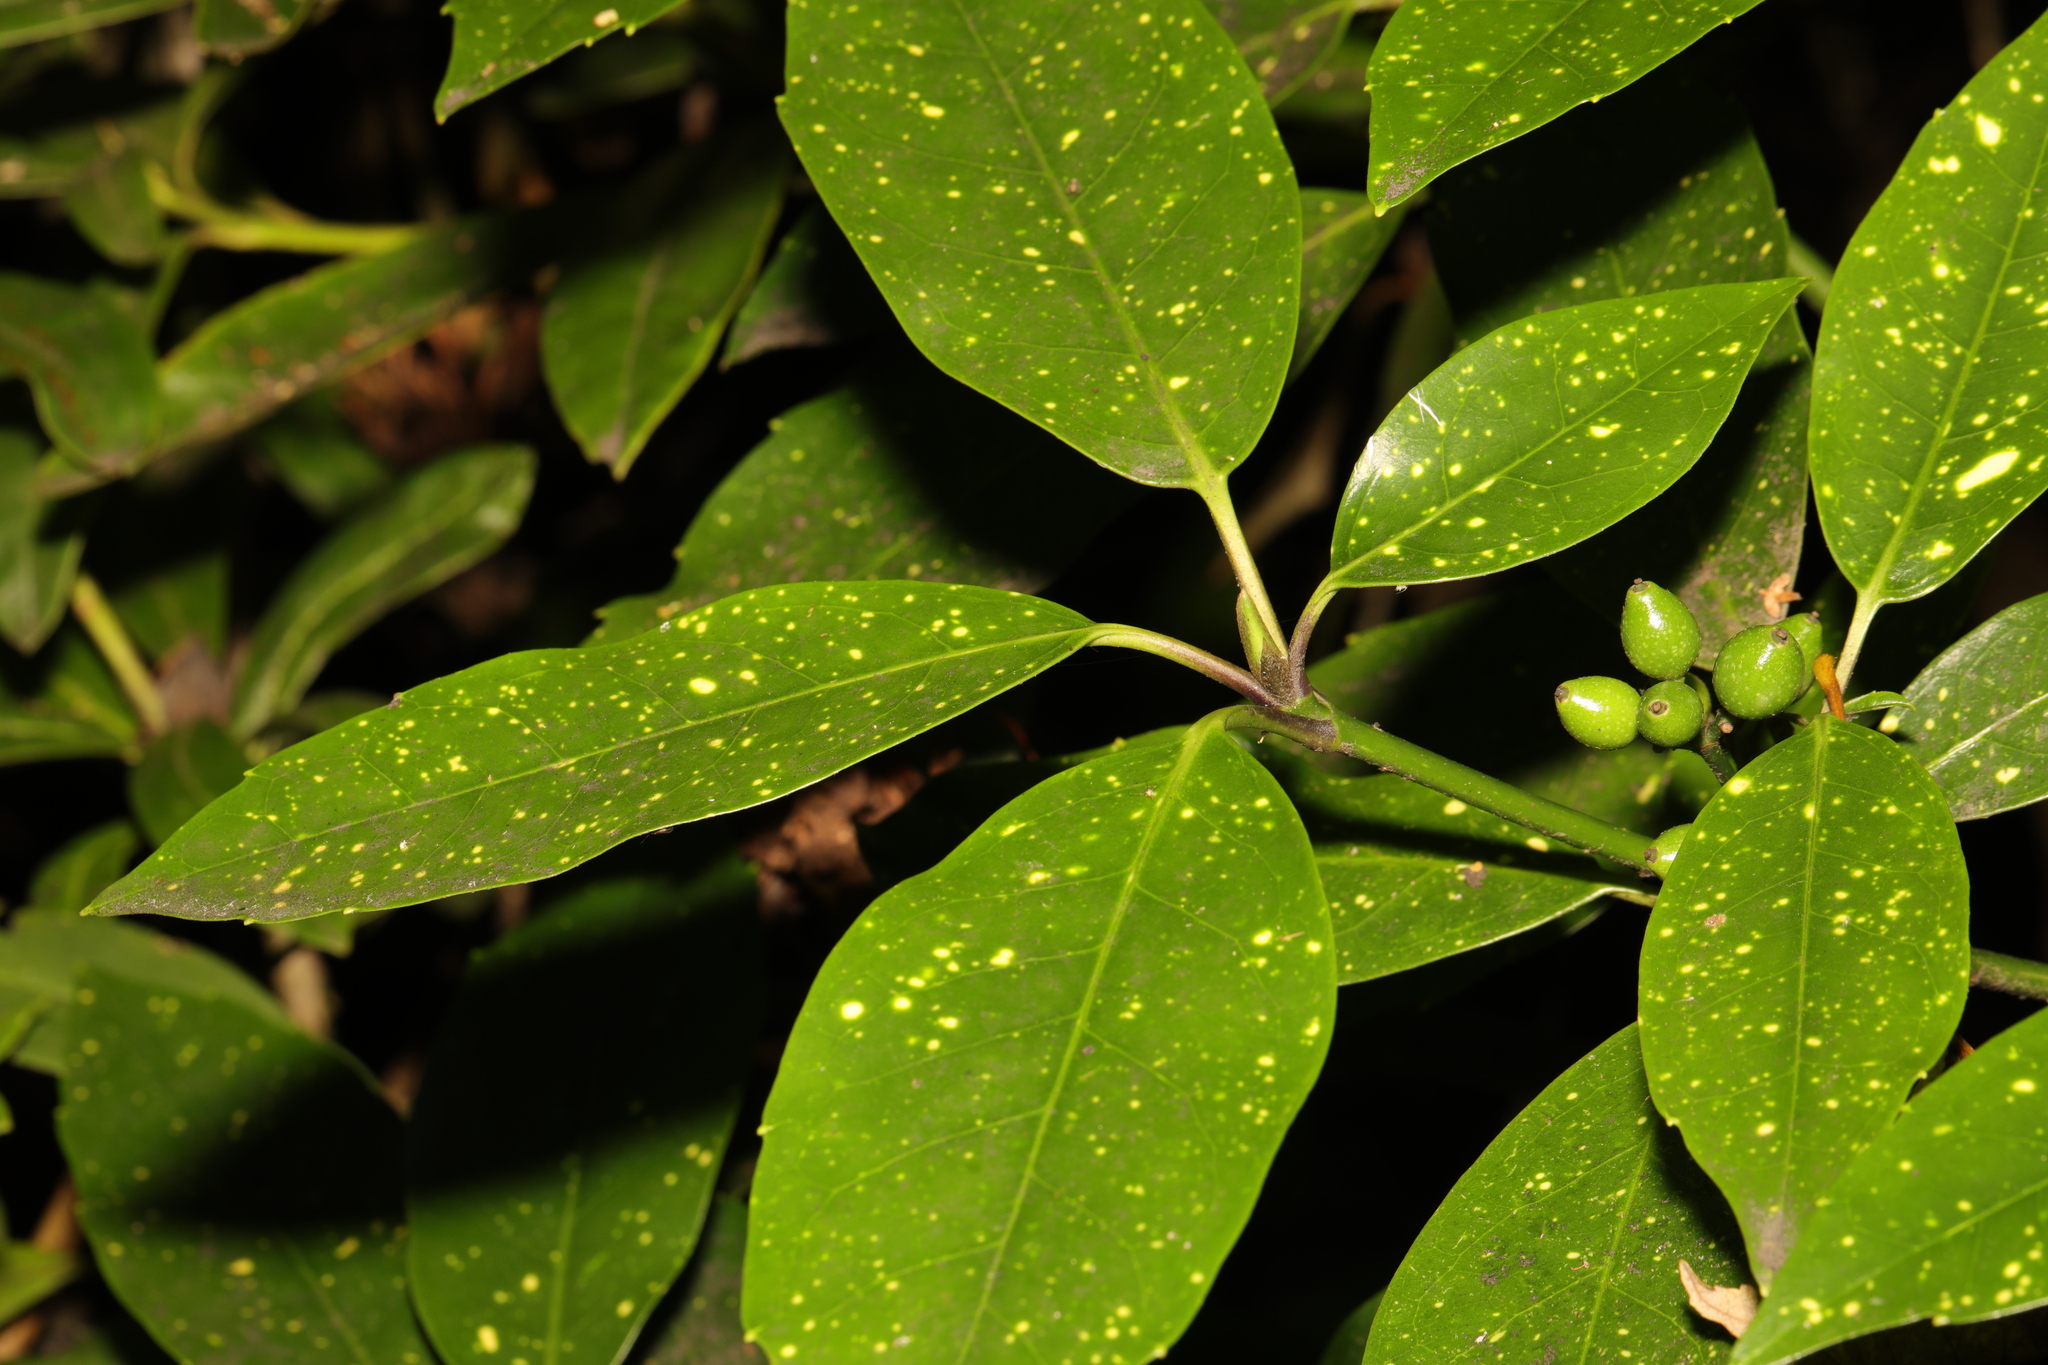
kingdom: Plantae
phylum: Tracheophyta
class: Magnoliopsida
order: Garryales
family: Garryaceae
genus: Aucuba
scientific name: Aucuba japonica
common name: Spotted-laurel
